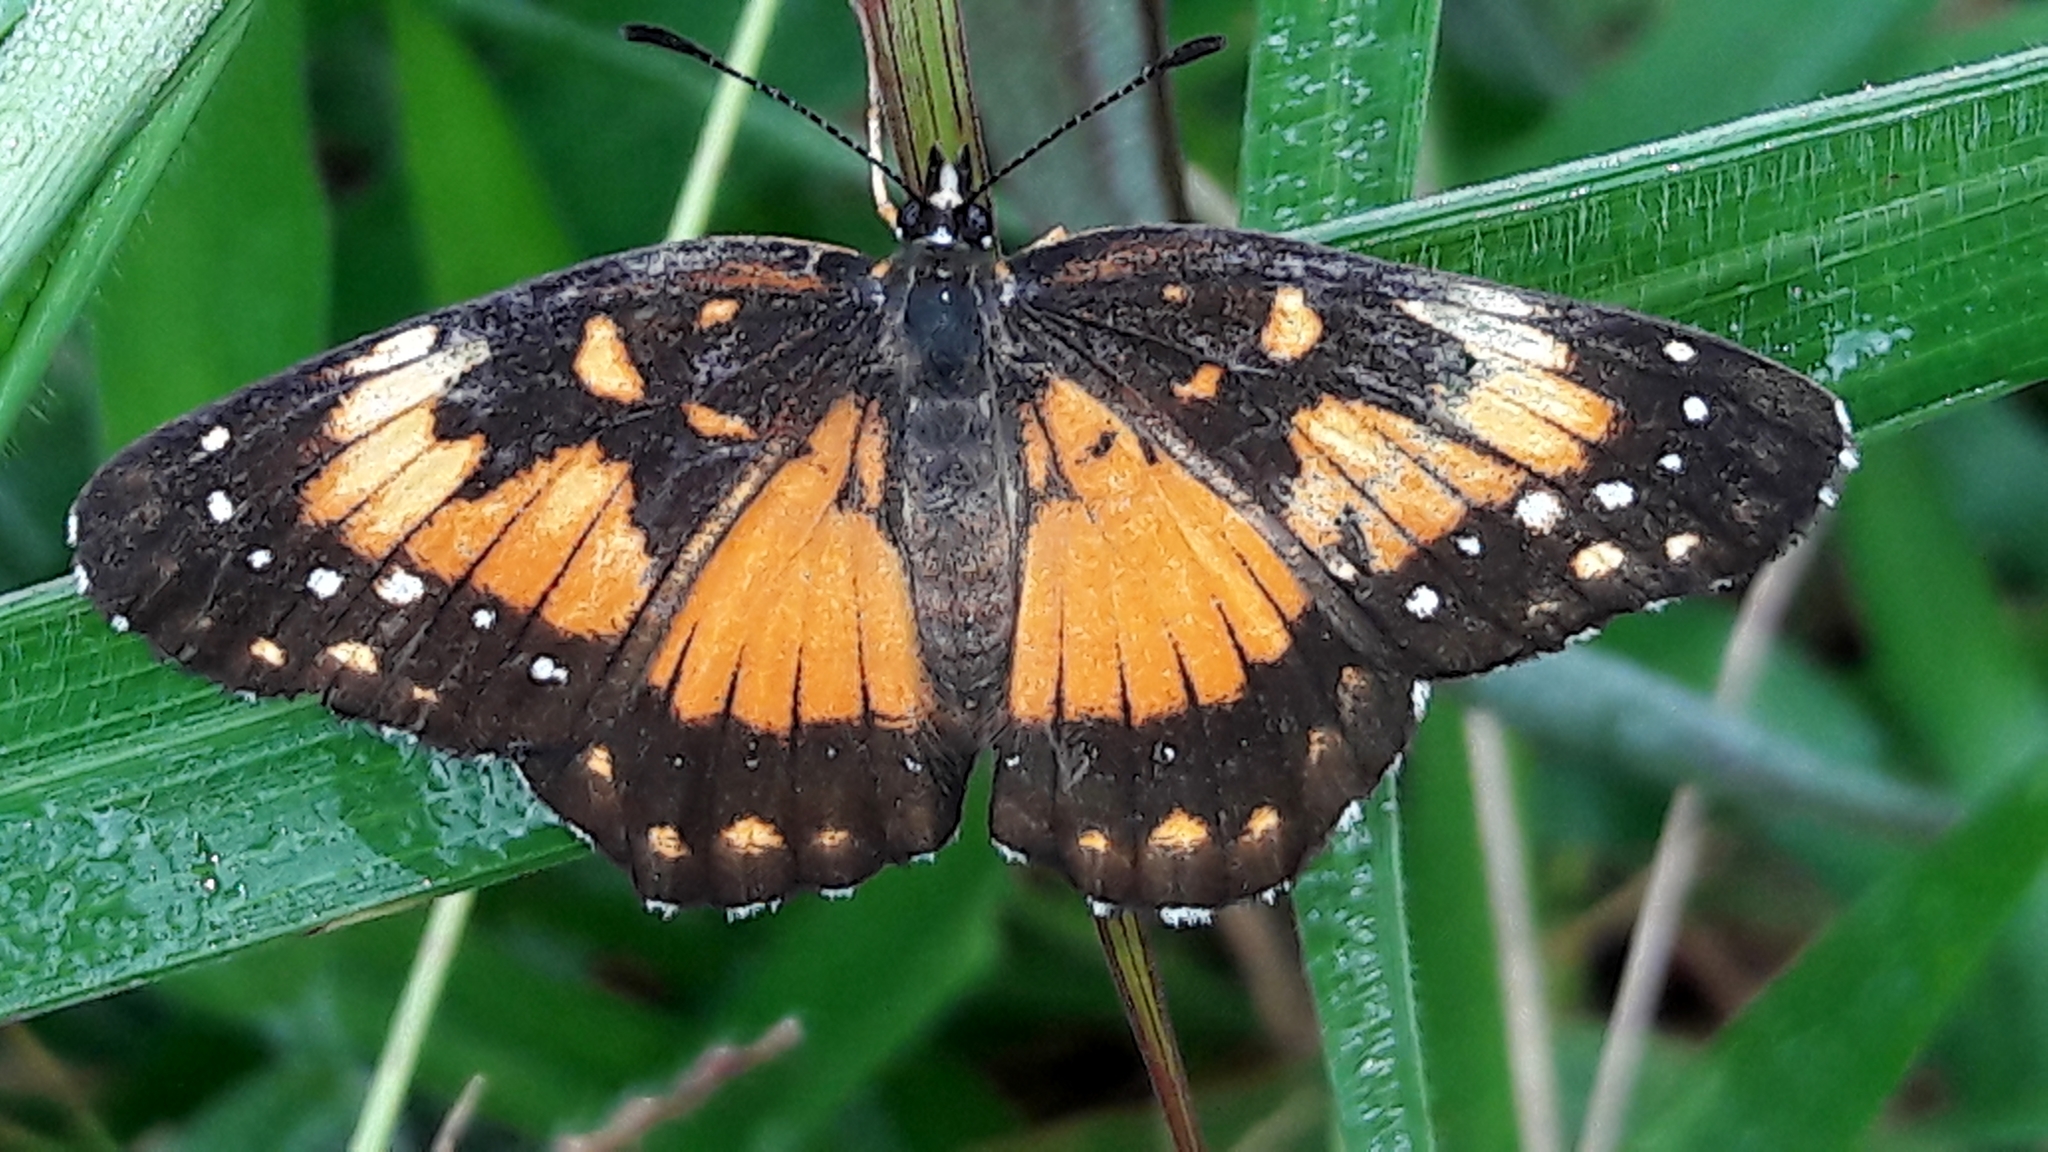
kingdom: Animalia
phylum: Arthropoda
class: Insecta
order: Lepidoptera
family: Nymphalidae
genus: Chlosyne
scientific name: Chlosyne lacinia
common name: Bordered patch
